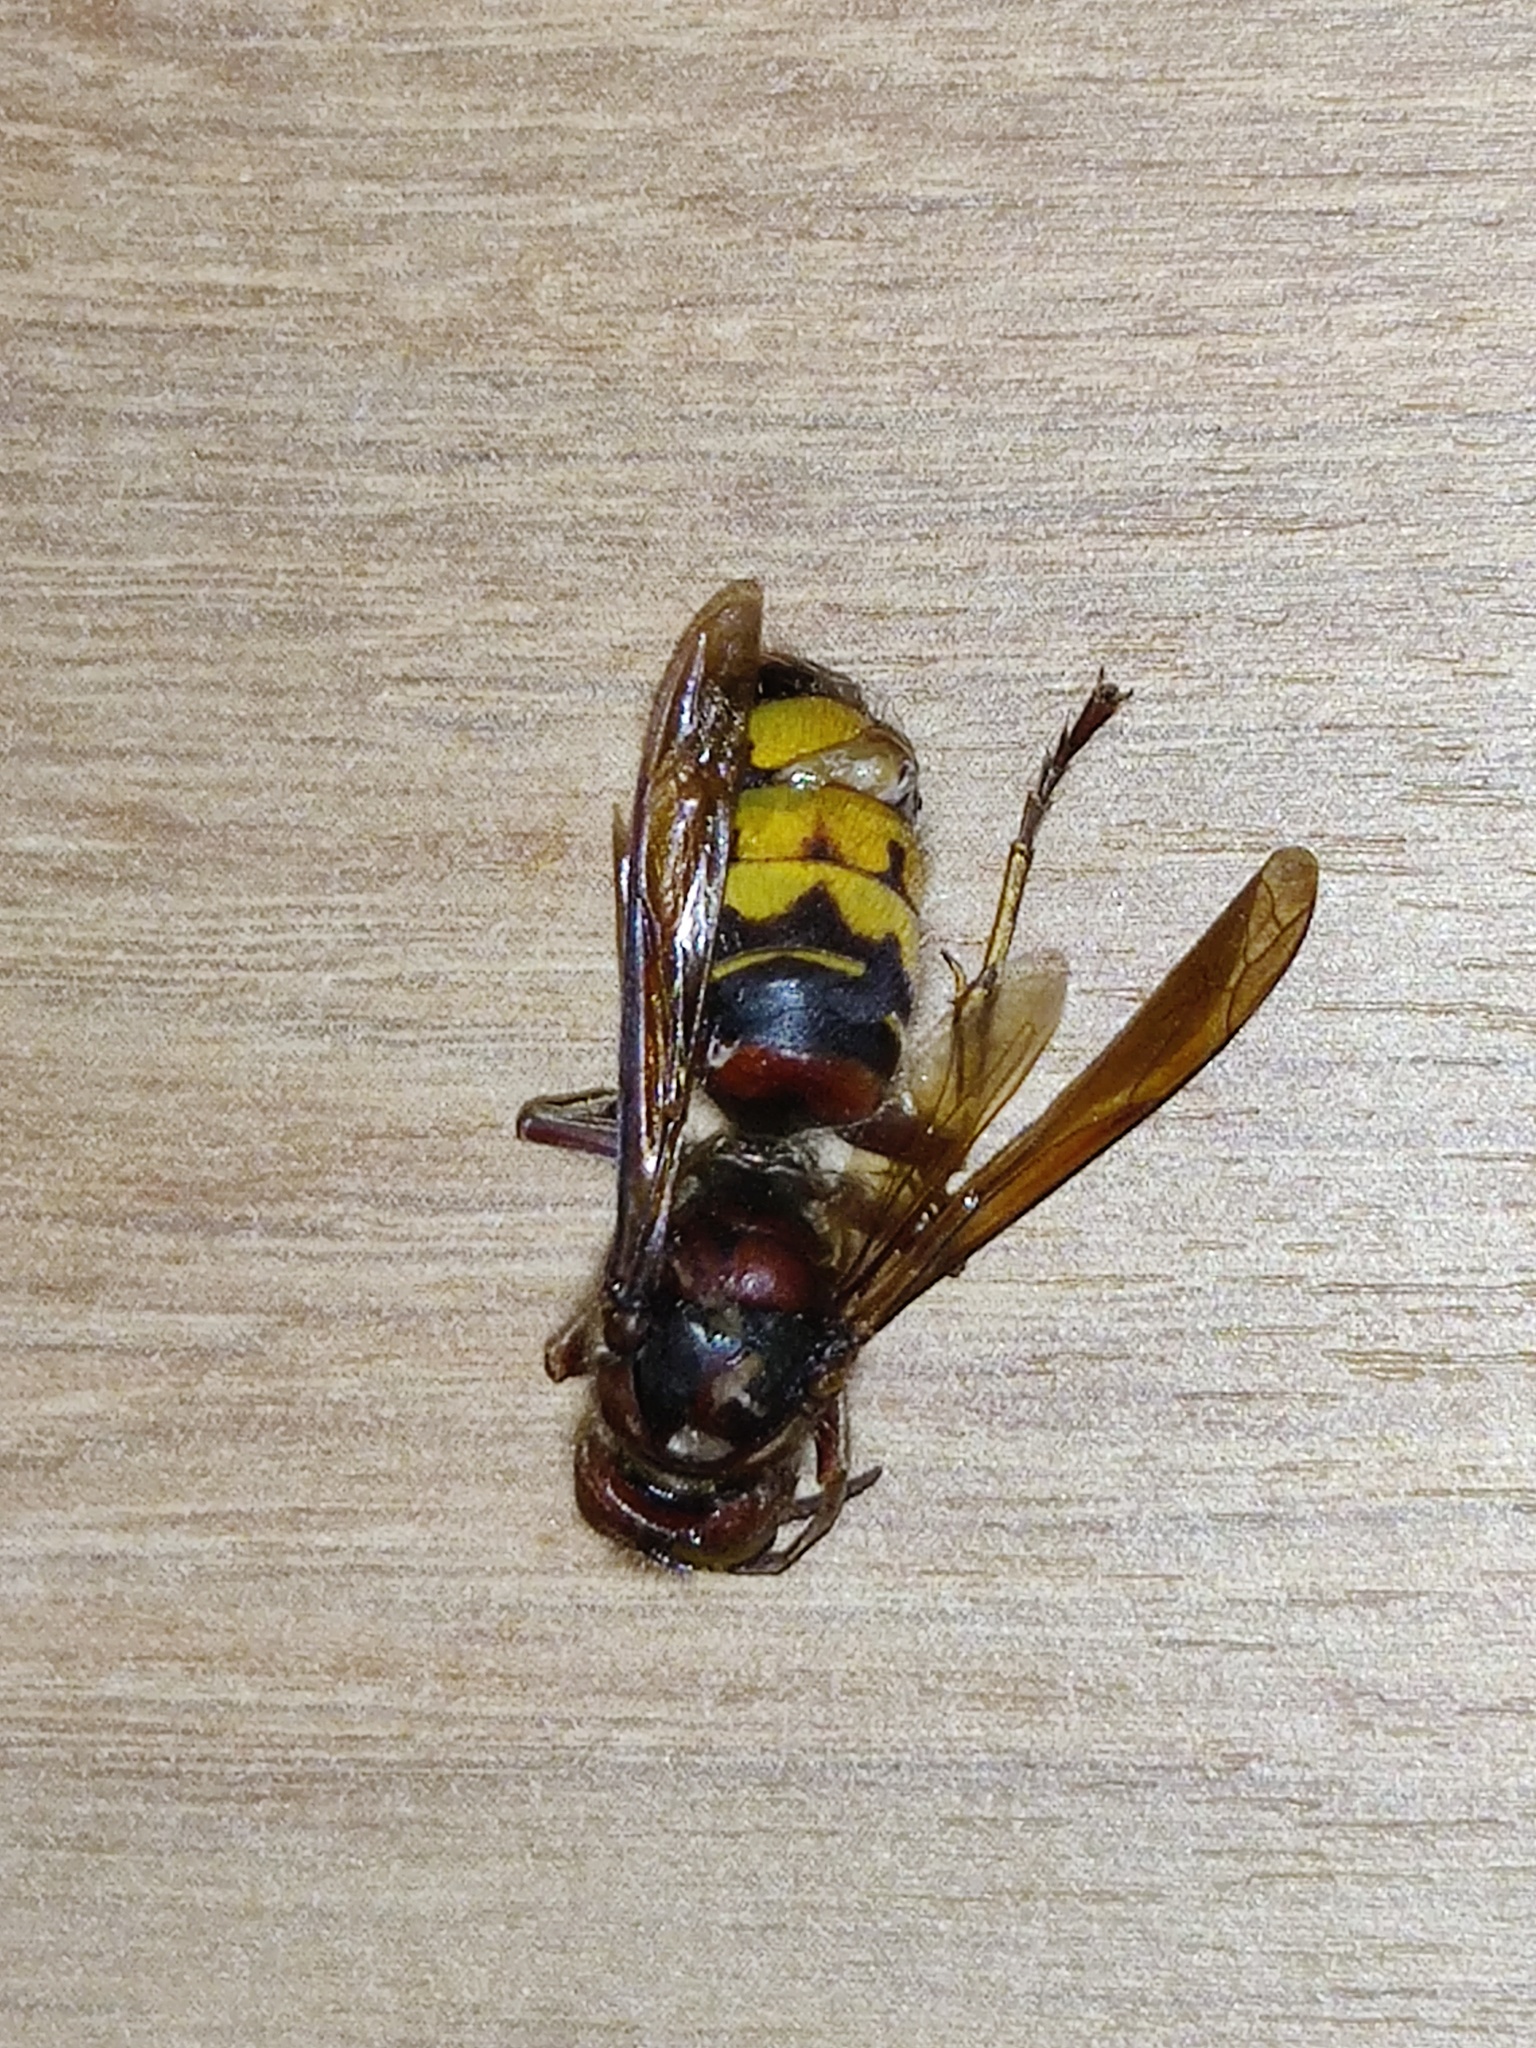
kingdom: Animalia
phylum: Arthropoda
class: Insecta
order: Hymenoptera
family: Vespidae
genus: Vespa
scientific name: Vespa crabro
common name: Hornet
